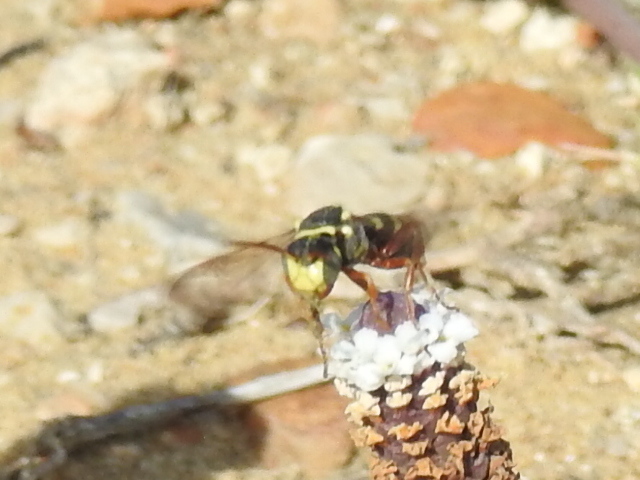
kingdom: Animalia
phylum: Arthropoda
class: Insecta
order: Hymenoptera
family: Apidae
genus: Nomada
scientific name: Nomada texana
